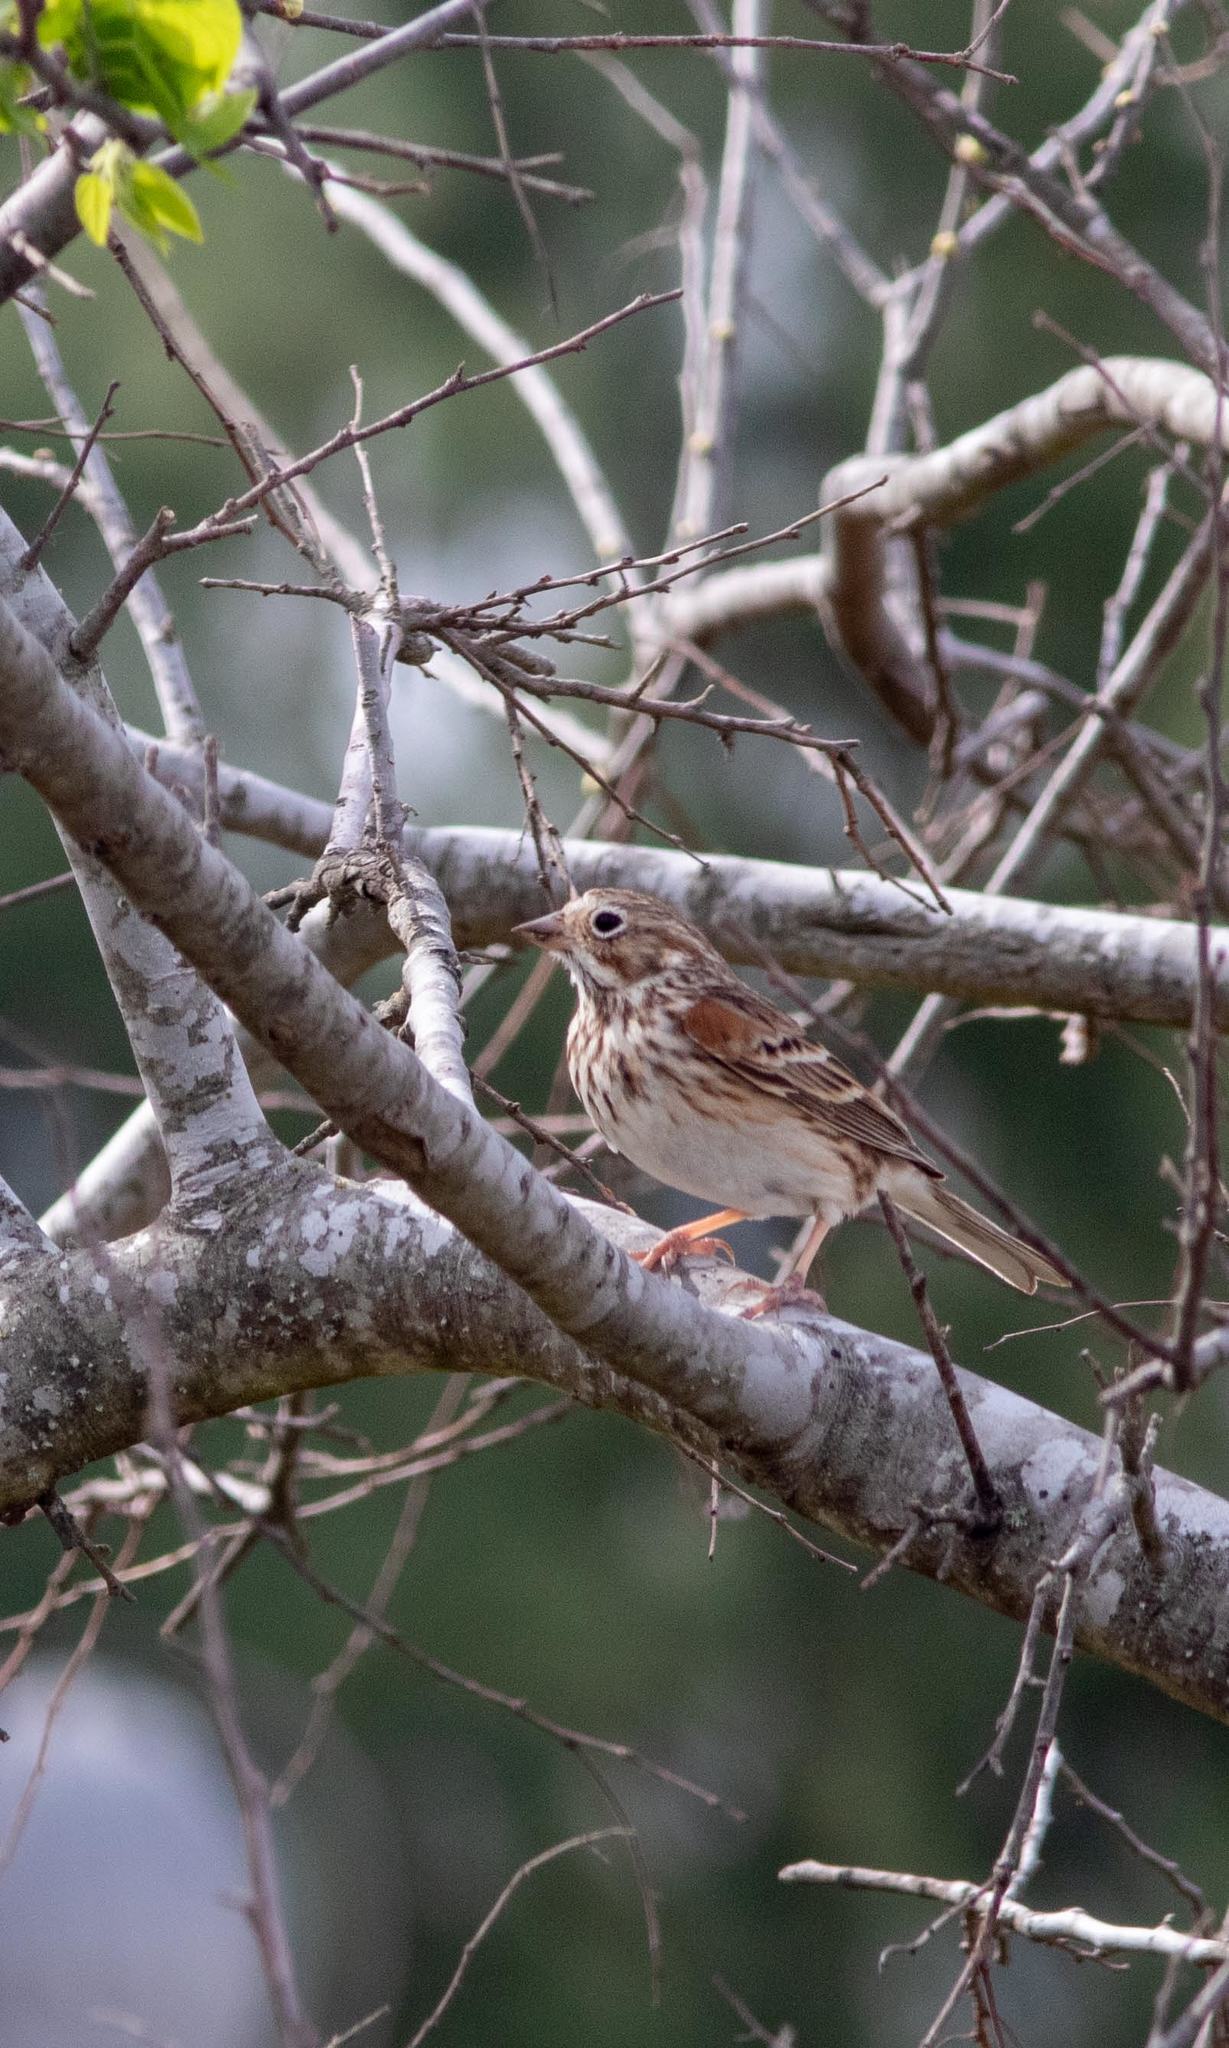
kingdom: Animalia
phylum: Chordata
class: Aves
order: Passeriformes
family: Passerellidae
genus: Pooecetes
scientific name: Pooecetes gramineus
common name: Vesper sparrow
